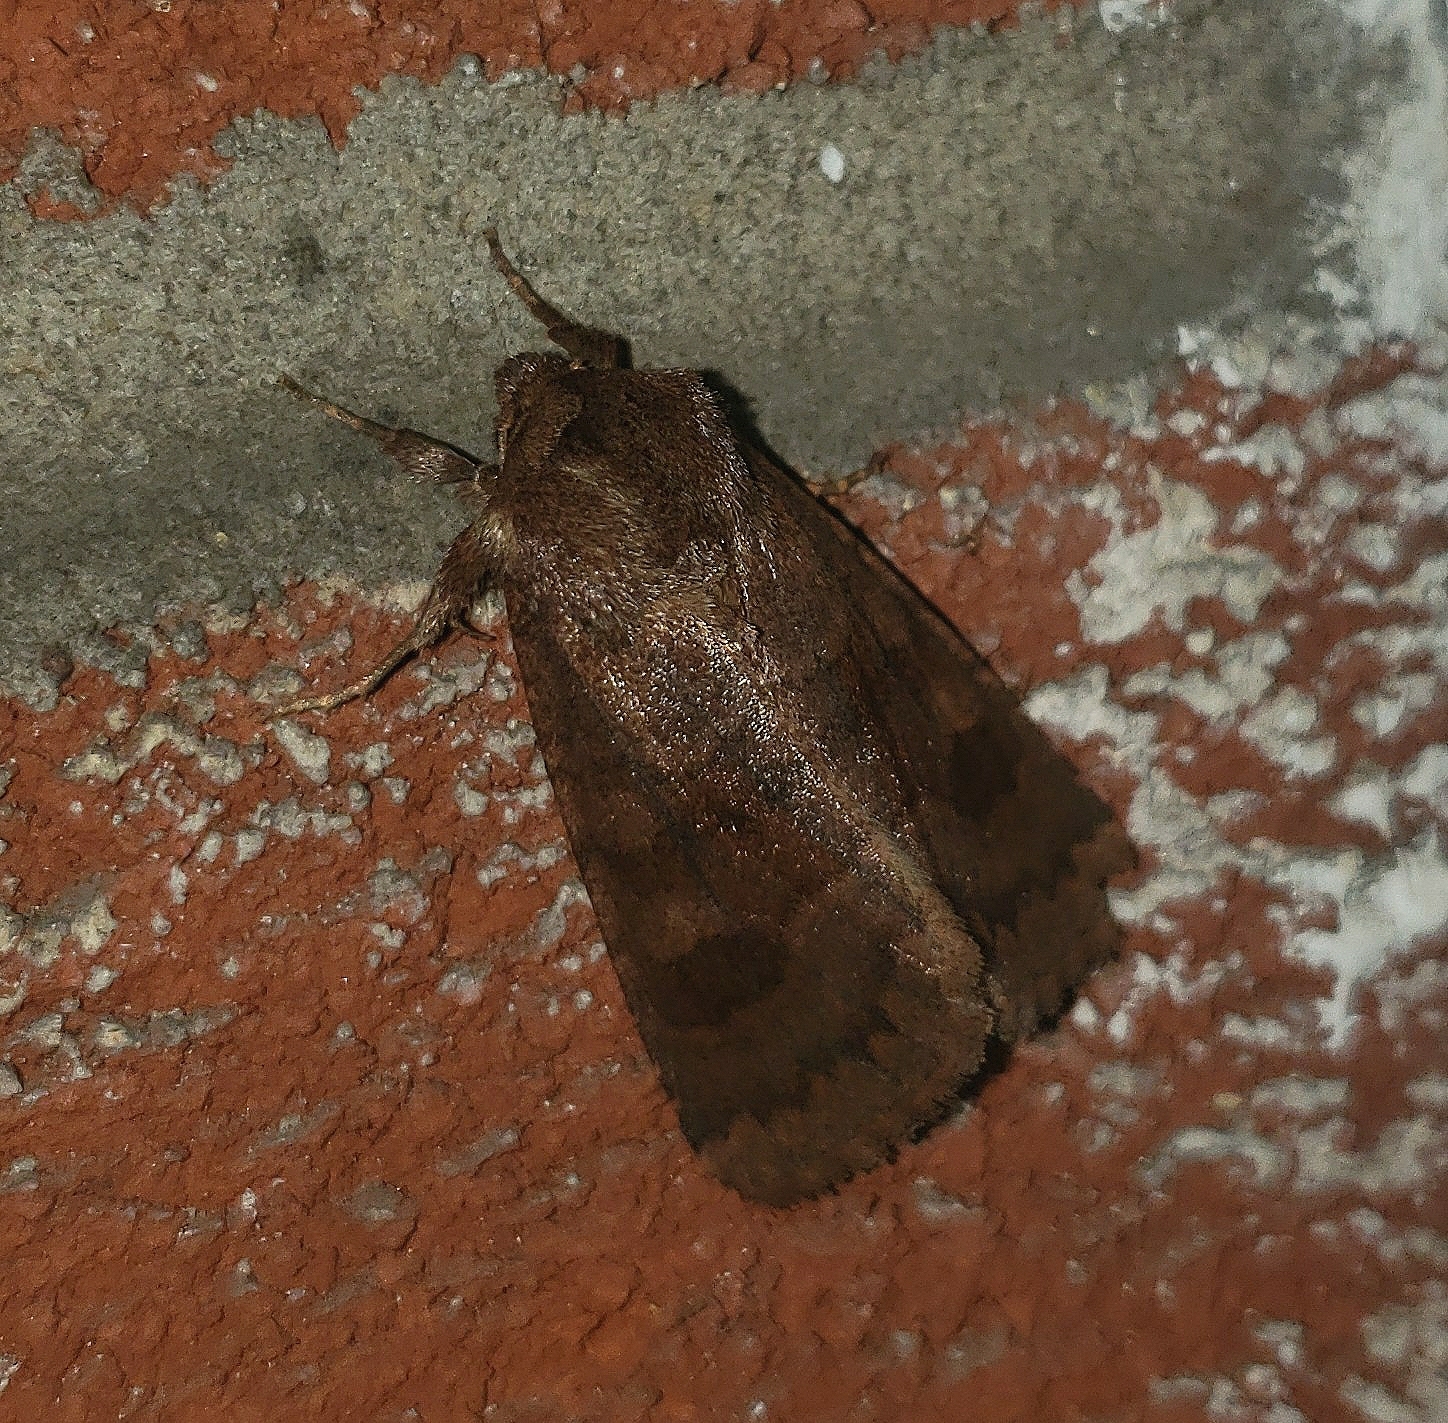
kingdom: Animalia
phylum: Arthropoda
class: Insecta
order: Lepidoptera
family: Noctuidae
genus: Nephelodes
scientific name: Nephelodes minians
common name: Bronzed cutworm
